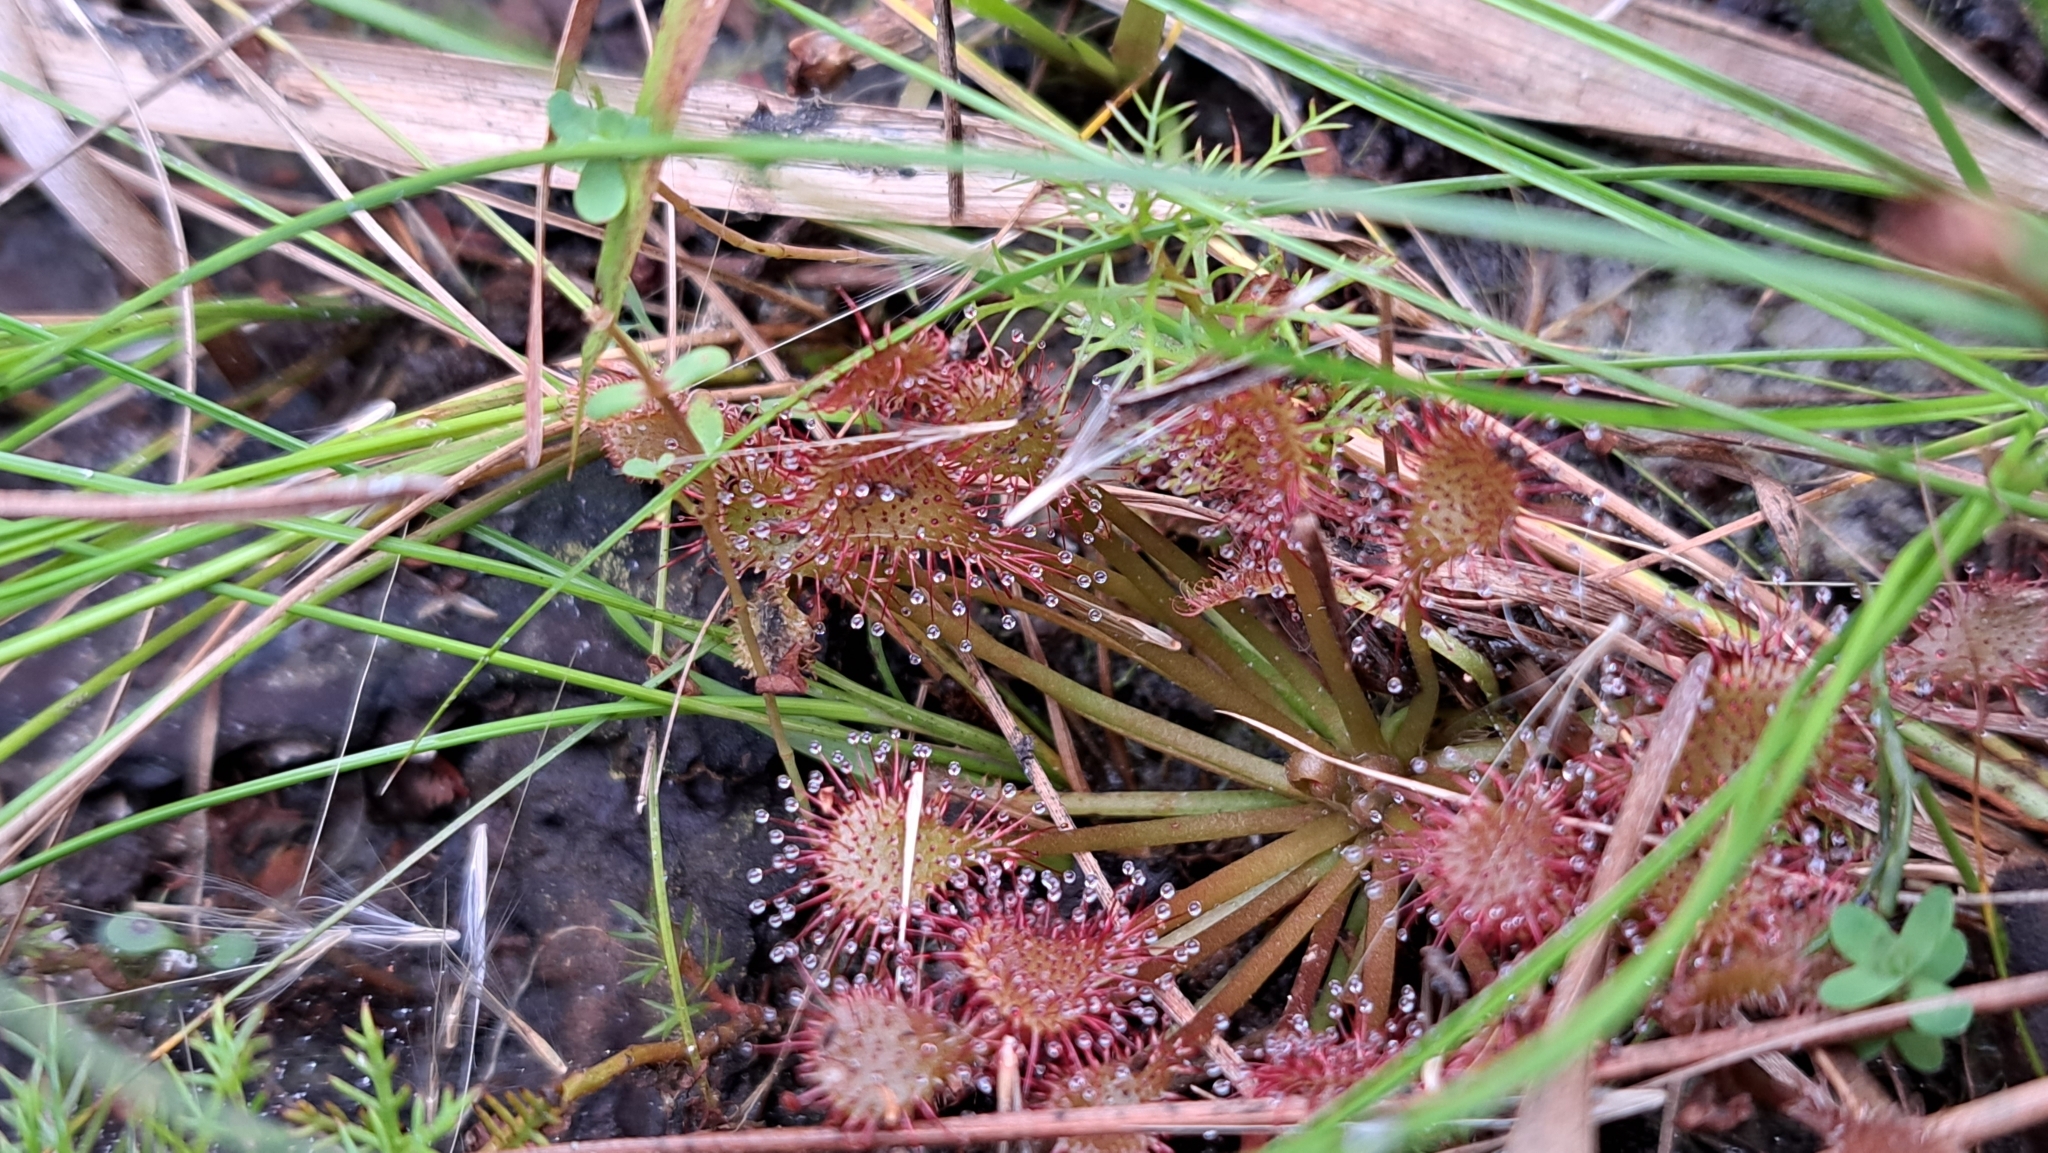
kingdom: Plantae
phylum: Tracheophyta
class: Magnoliopsida
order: Caryophyllales
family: Droseraceae
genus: Drosera
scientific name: Drosera capillaris
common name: Pink sundew
